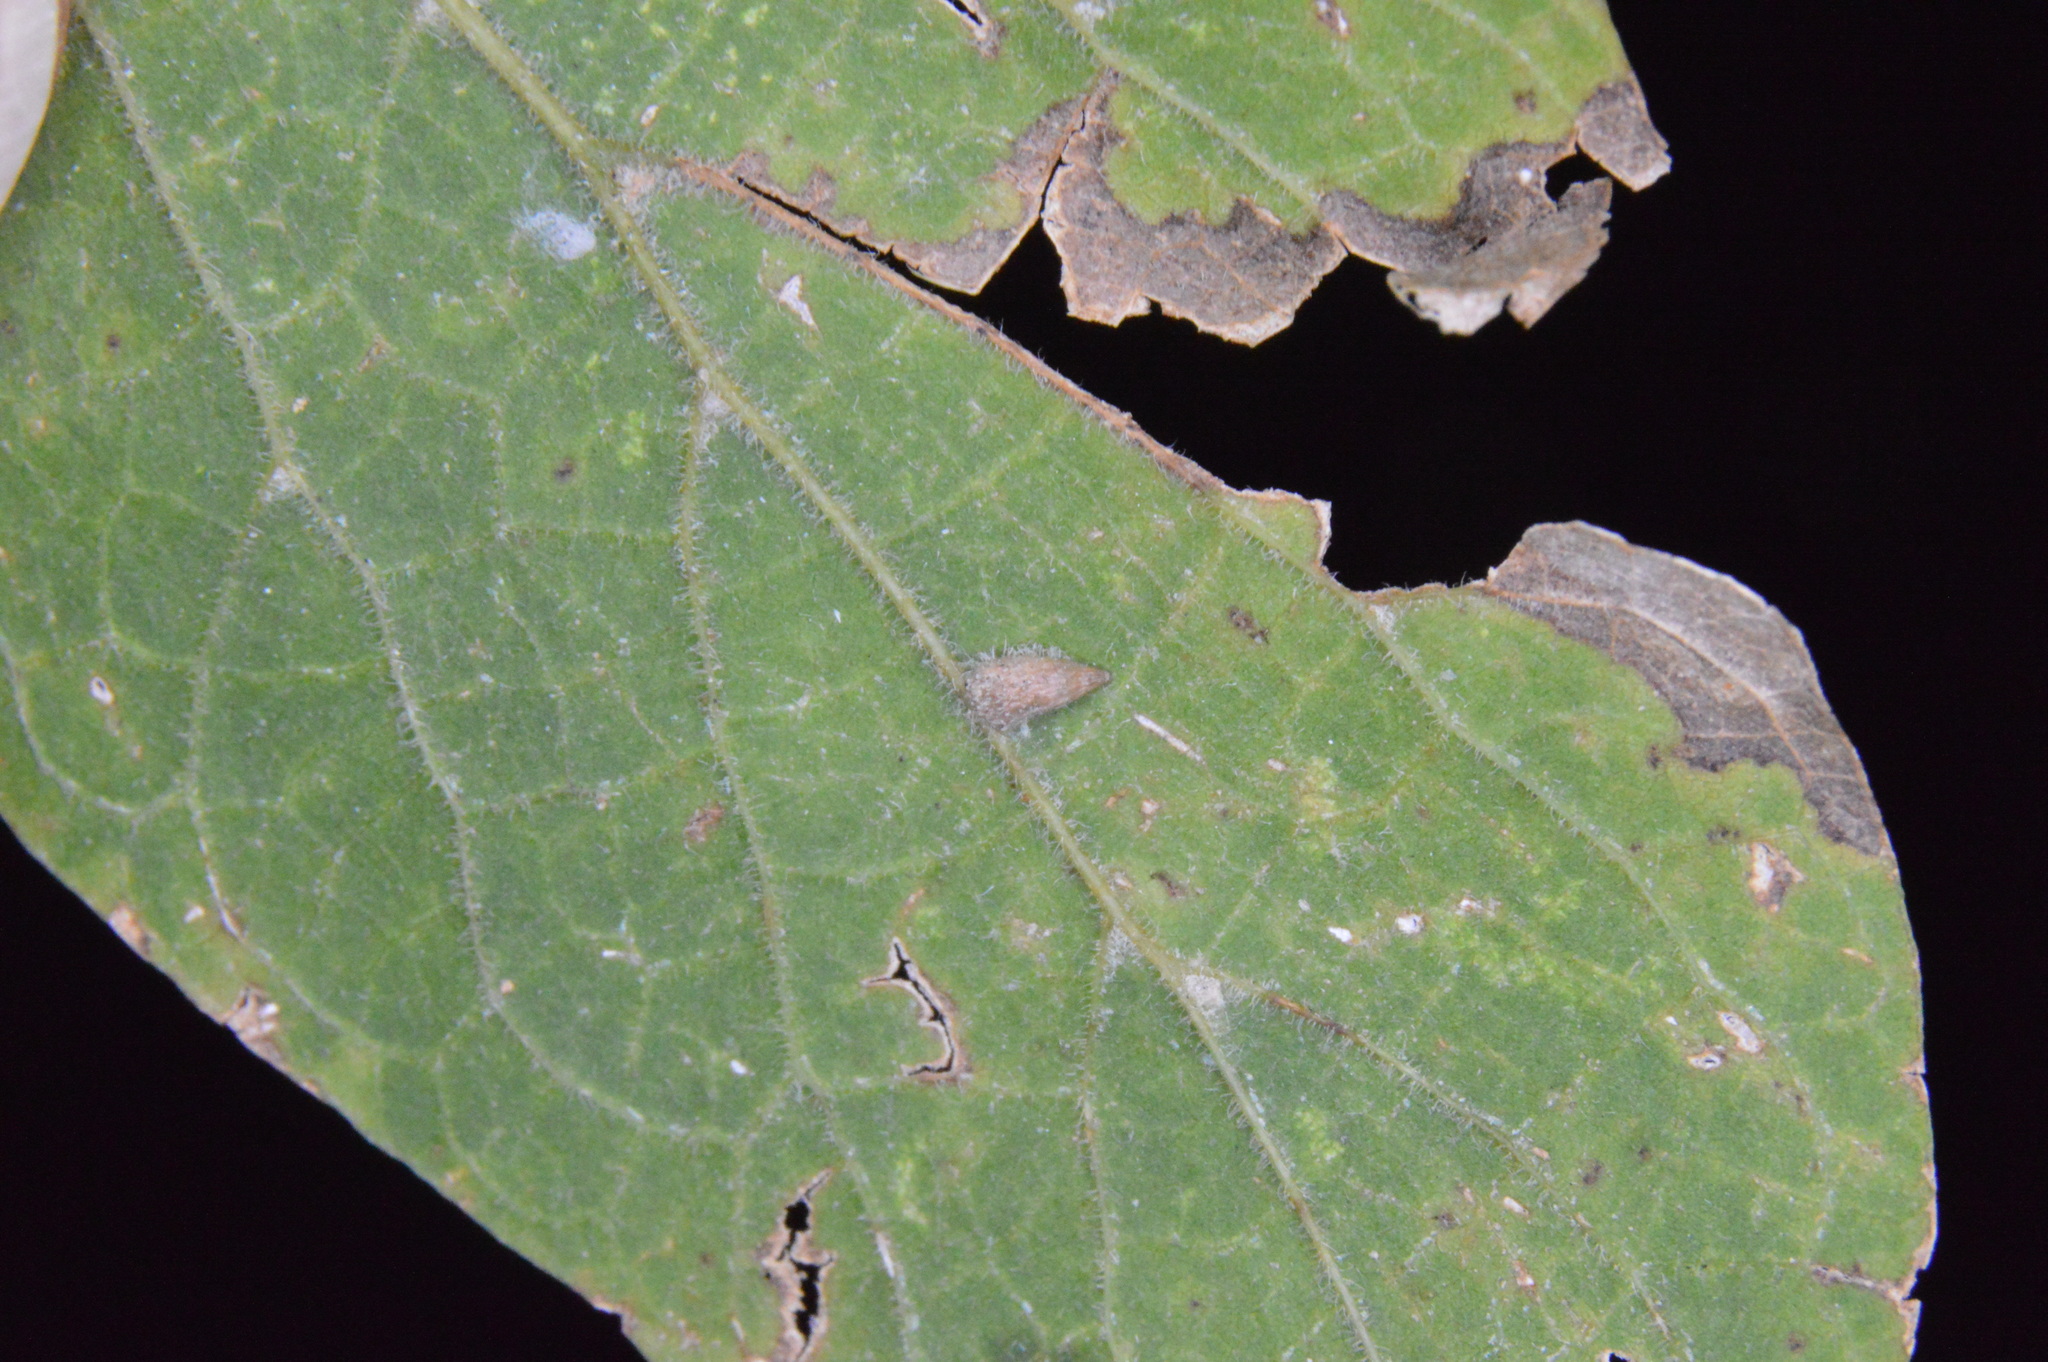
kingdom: Animalia
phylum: Arthropoda
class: Insecta
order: Diptera
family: Cecidomyiidae
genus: Celticecis
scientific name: Celticecis supina
